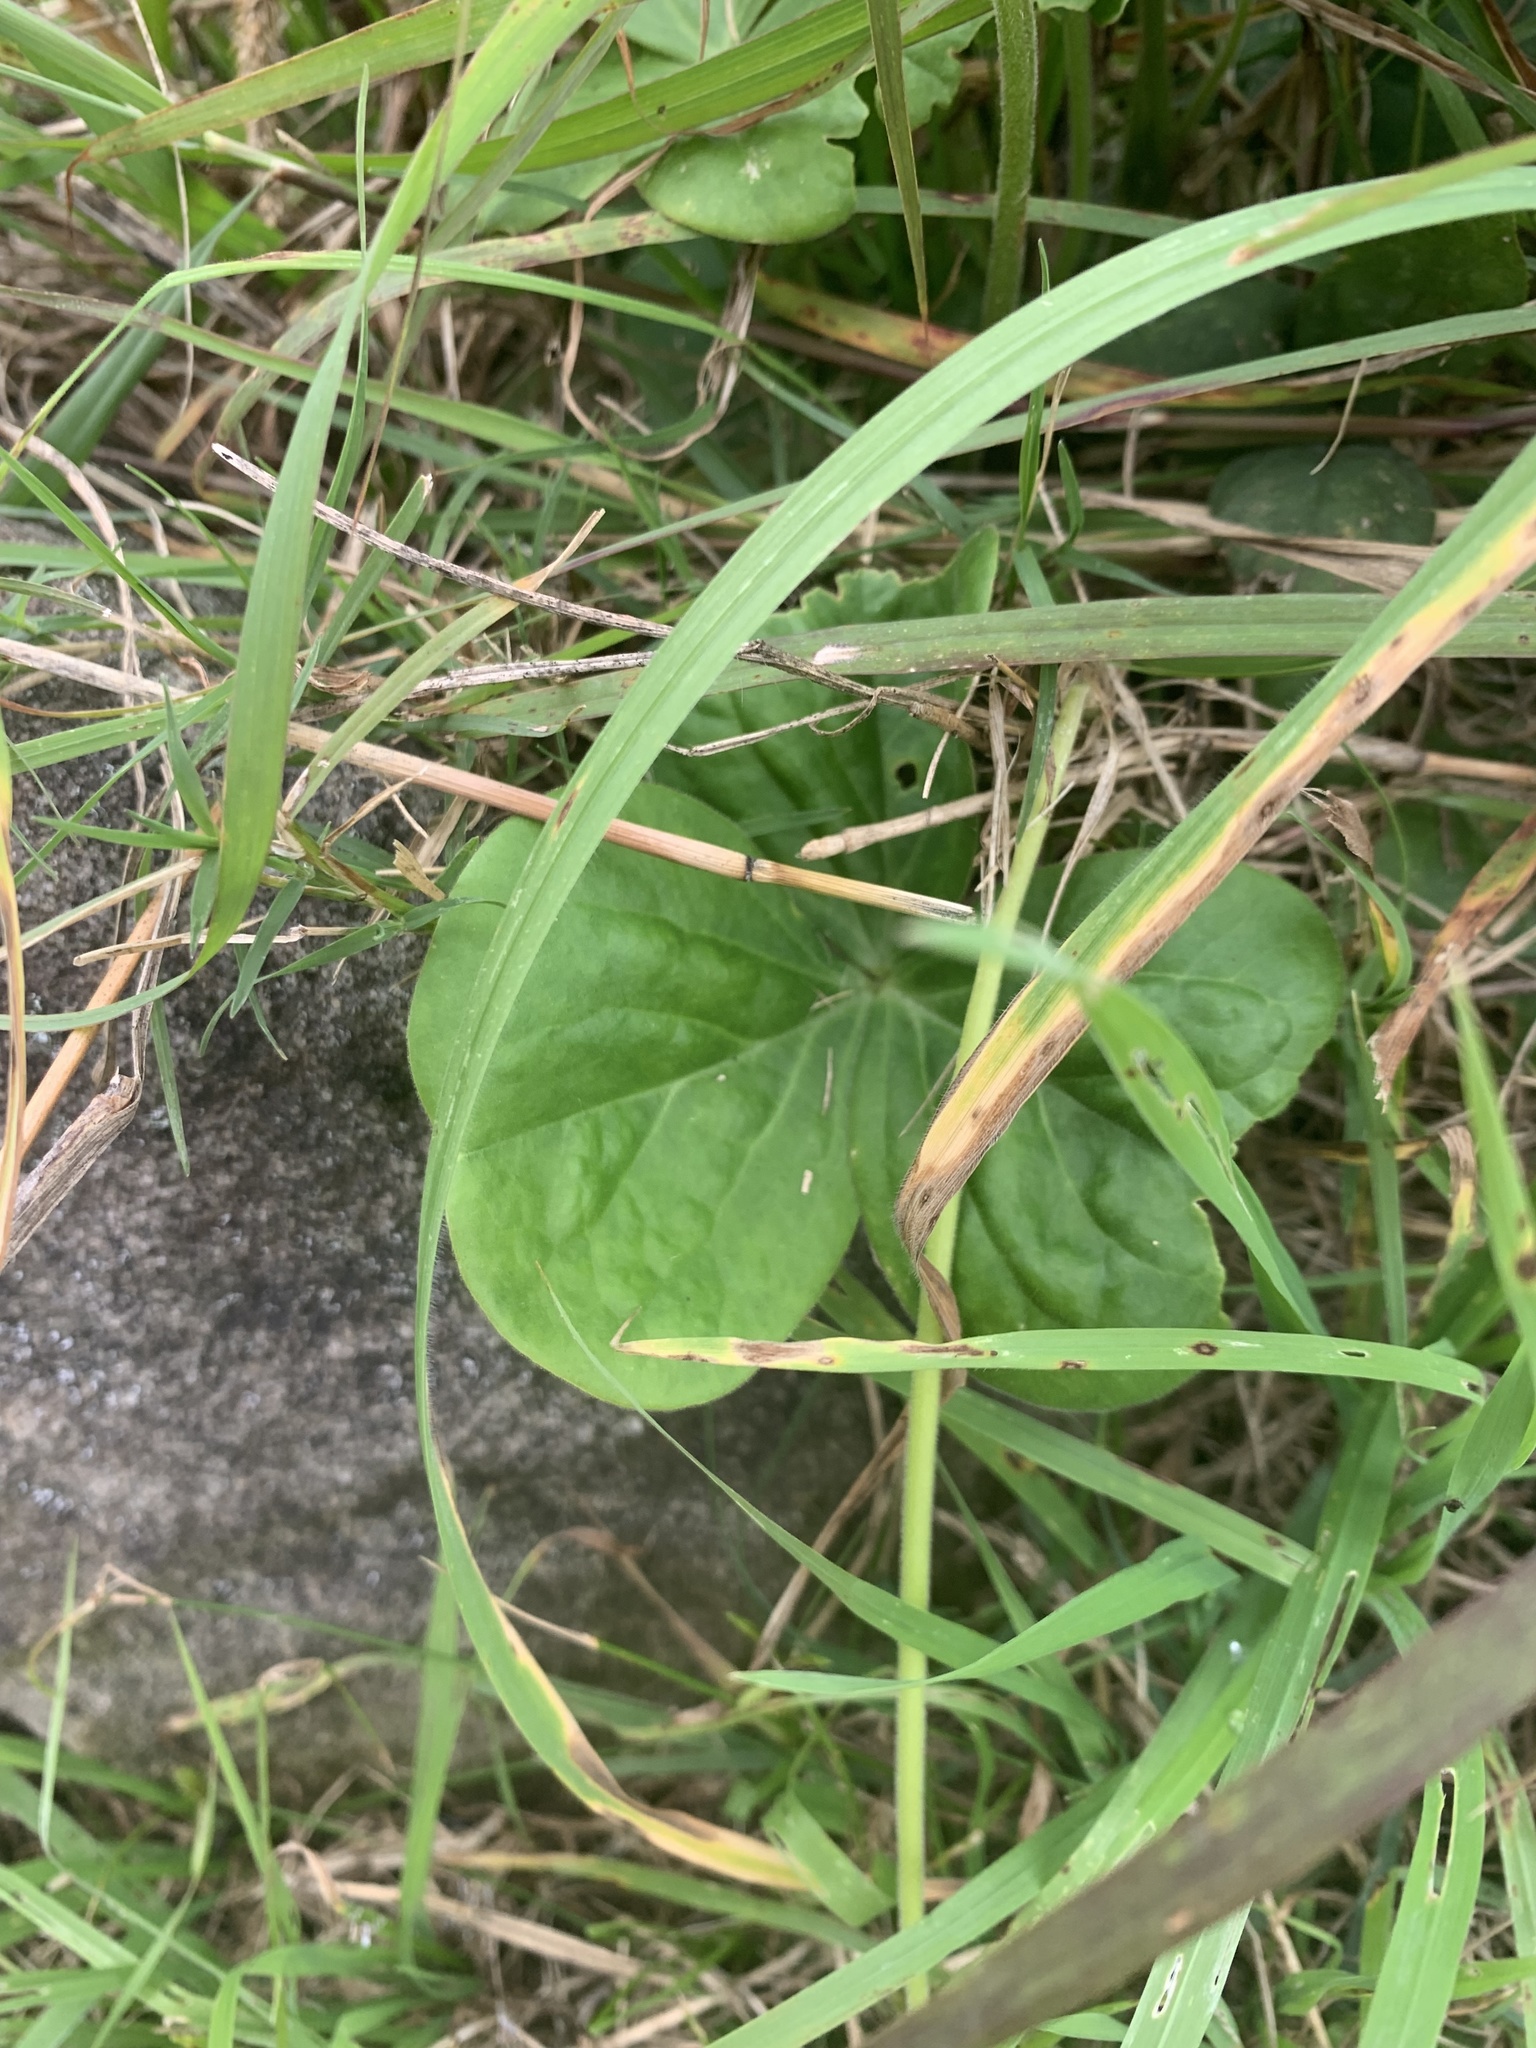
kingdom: Plantae
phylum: Tracheophyta
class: Magnoliopsida
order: Oxalidales
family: Oxalidaceae
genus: Oxalis
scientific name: Oxalis bowiei
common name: Bowie's wood-sorrel
